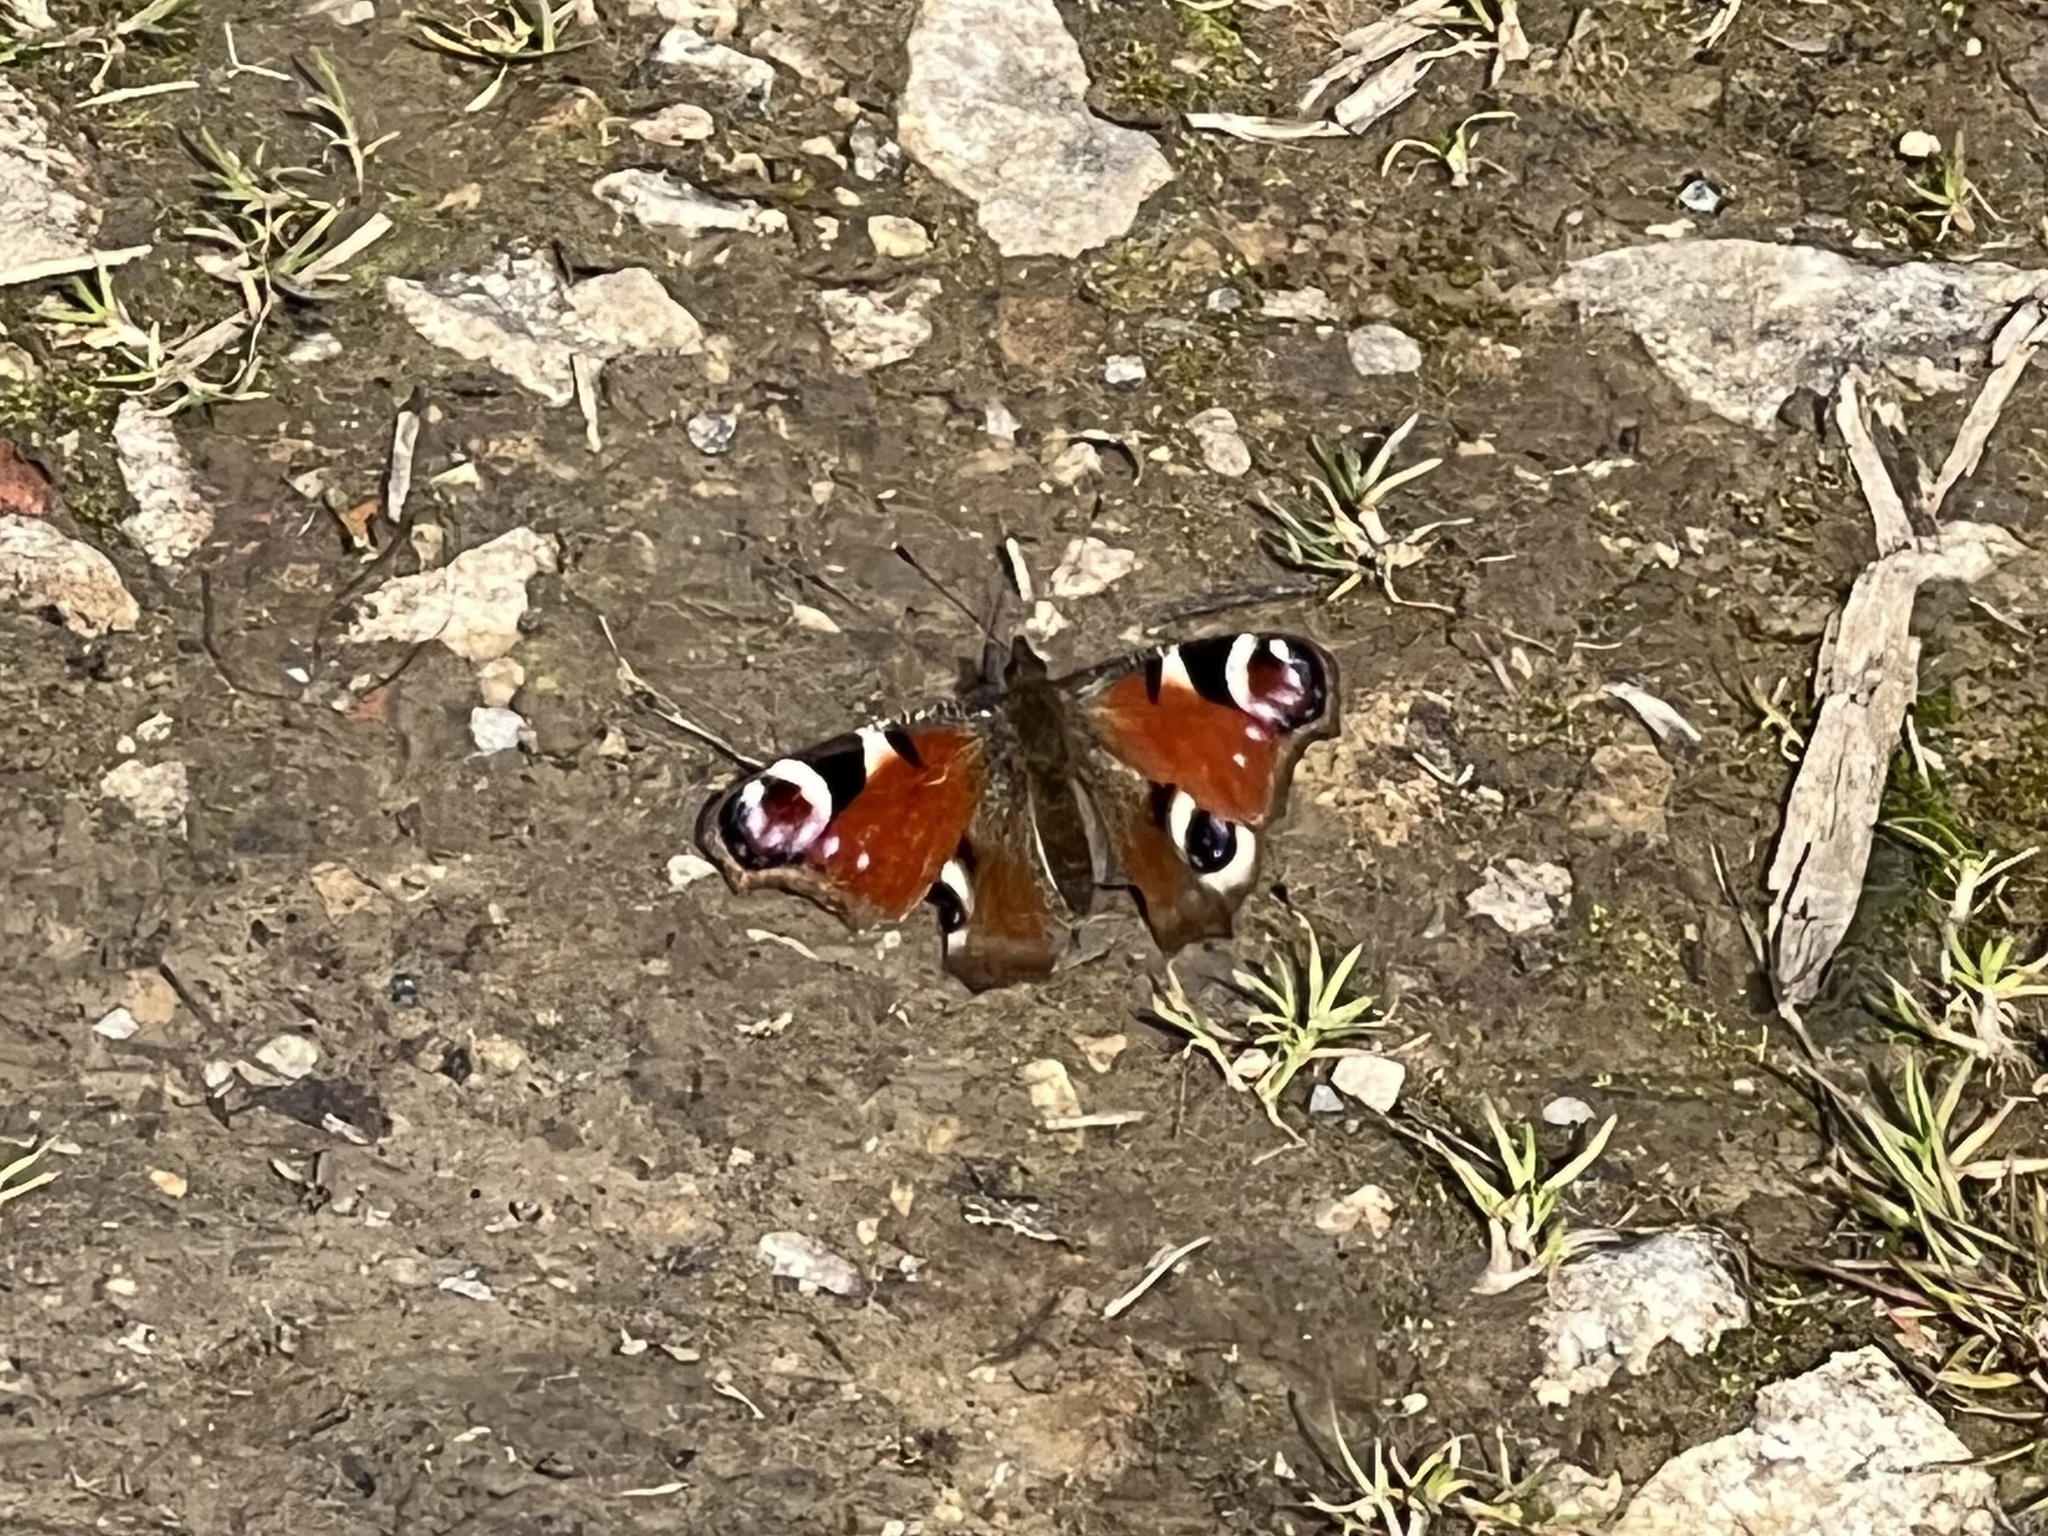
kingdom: Animalia
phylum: Arthropoda
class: Insecta
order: Lepidoptera
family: Nymphalidae
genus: Aglais
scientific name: Aglais io
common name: Peacock
